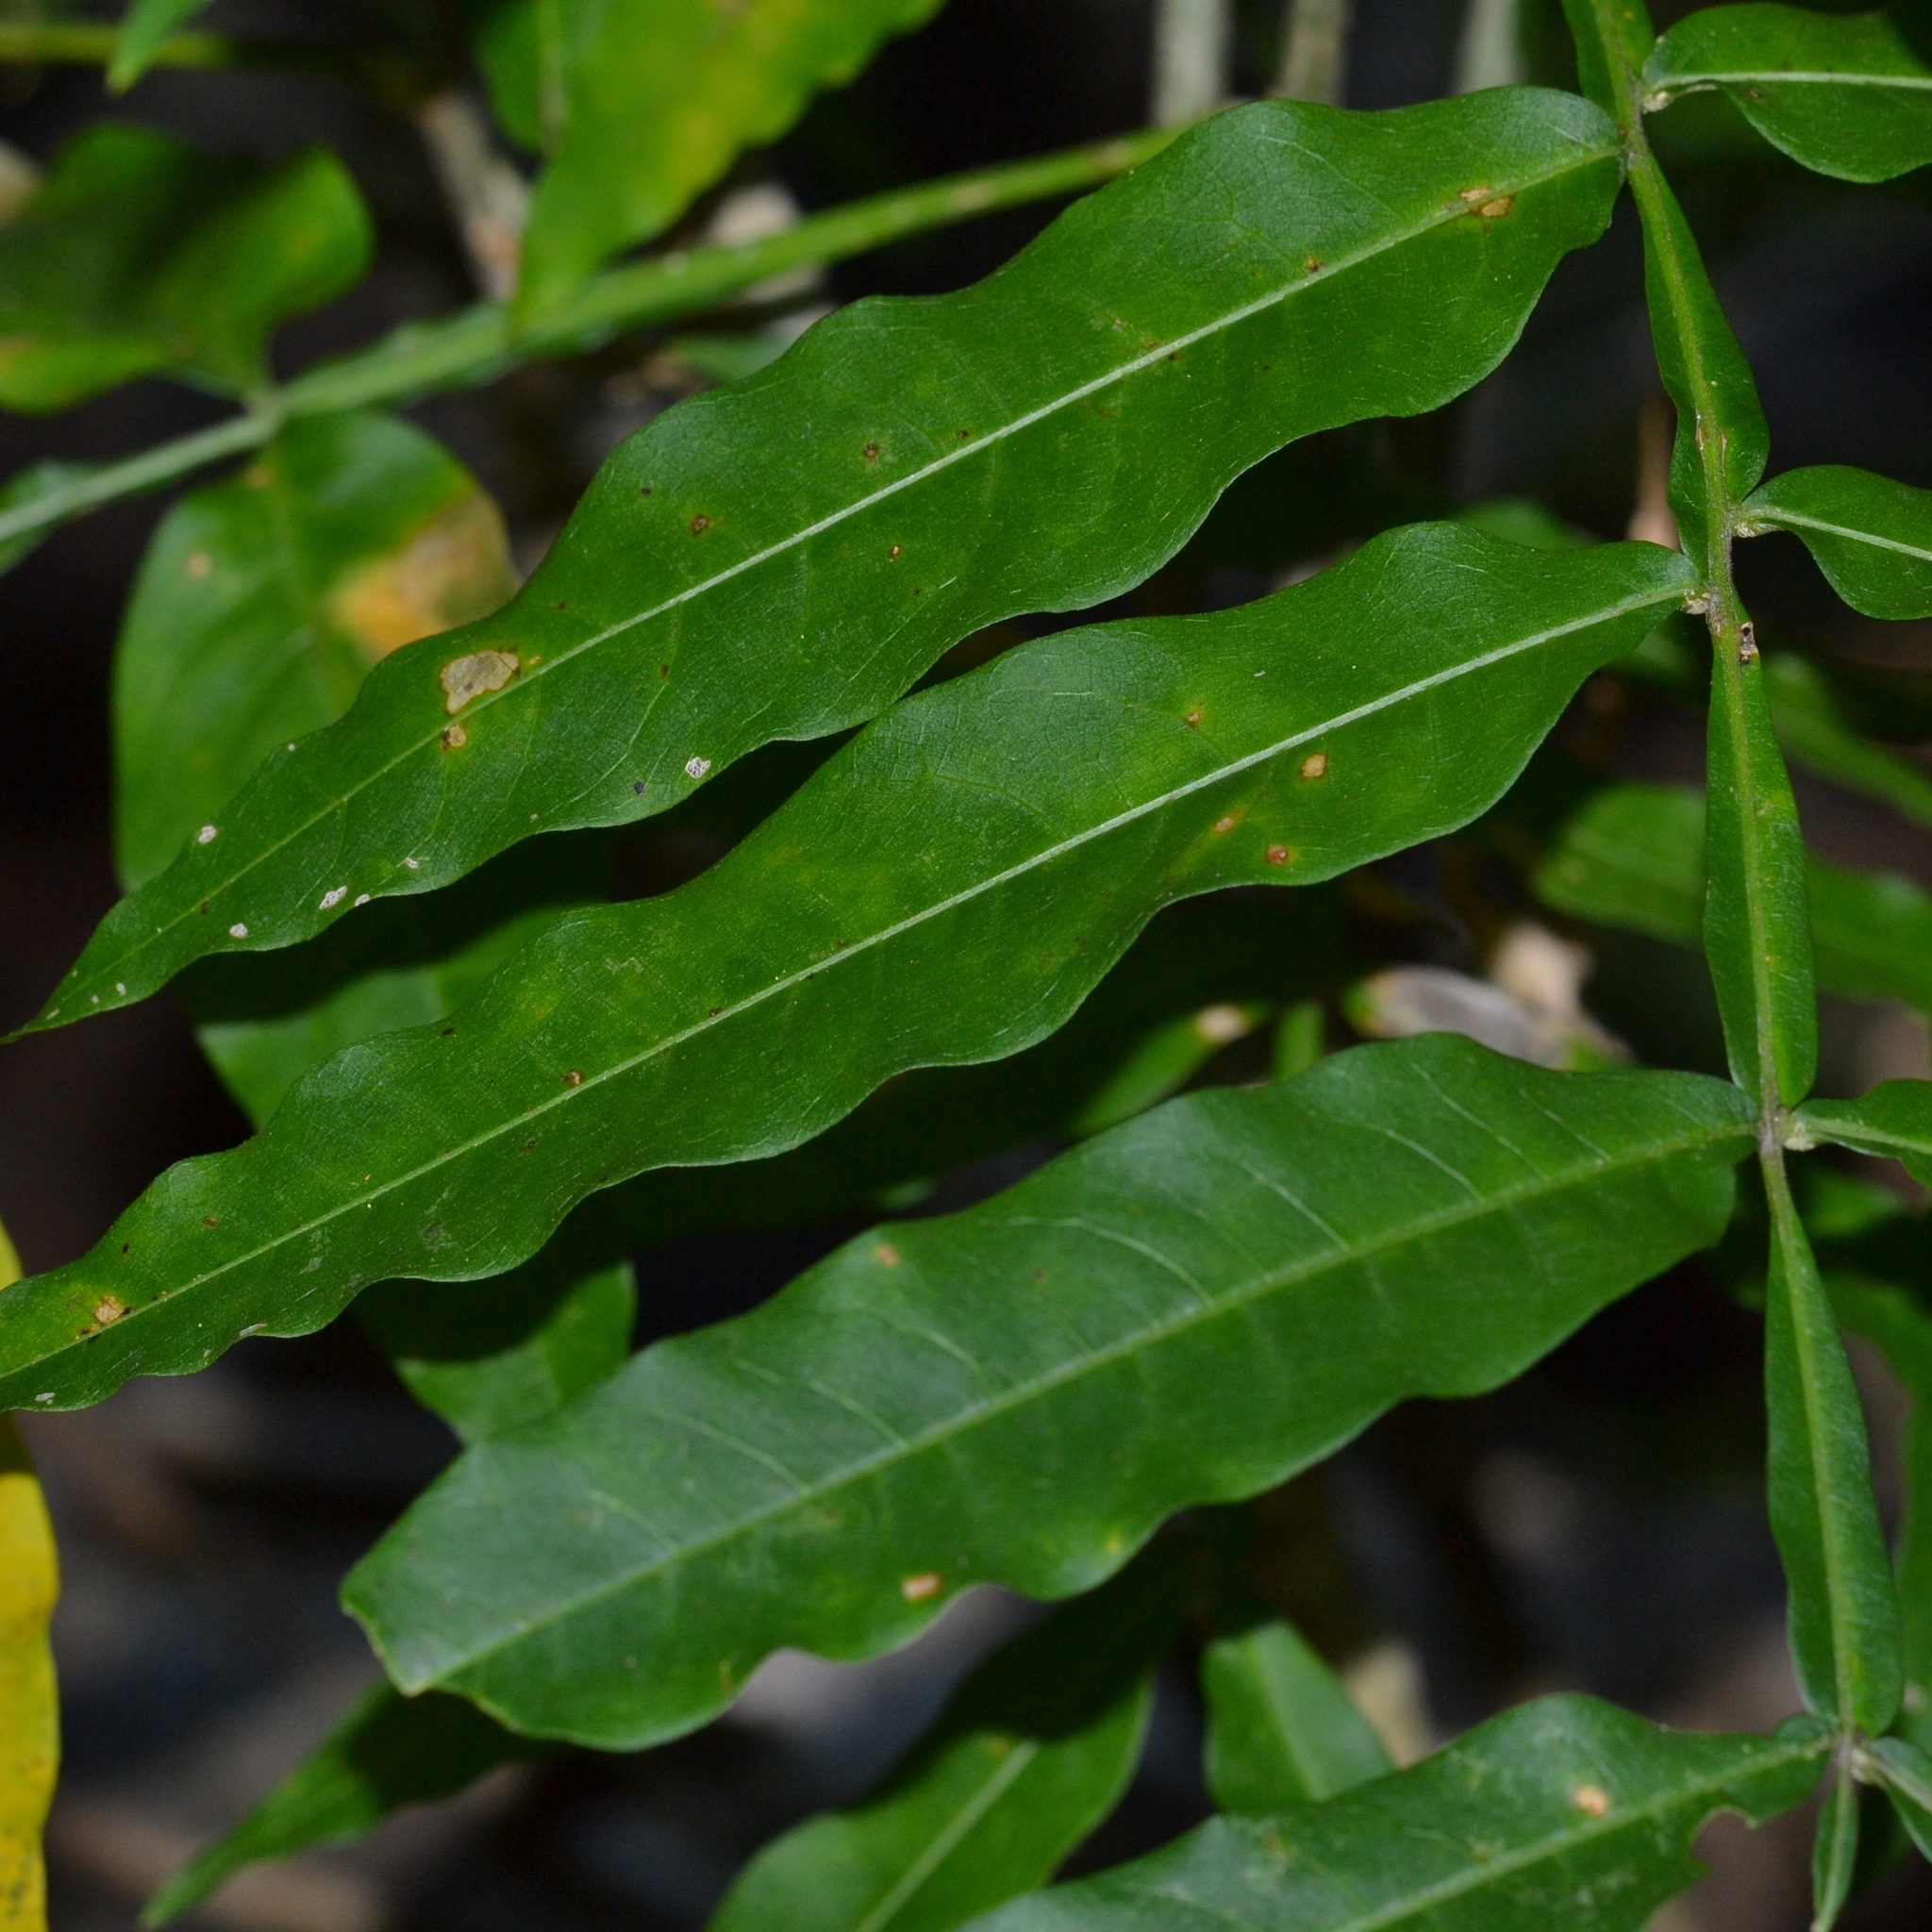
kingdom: Plantae
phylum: Tracheophyta
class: Magnoliopsida
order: Sapindales
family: Sapindaceae
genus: Sapindus
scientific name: Sapindus saponaria
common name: Wingleaf soapberry
